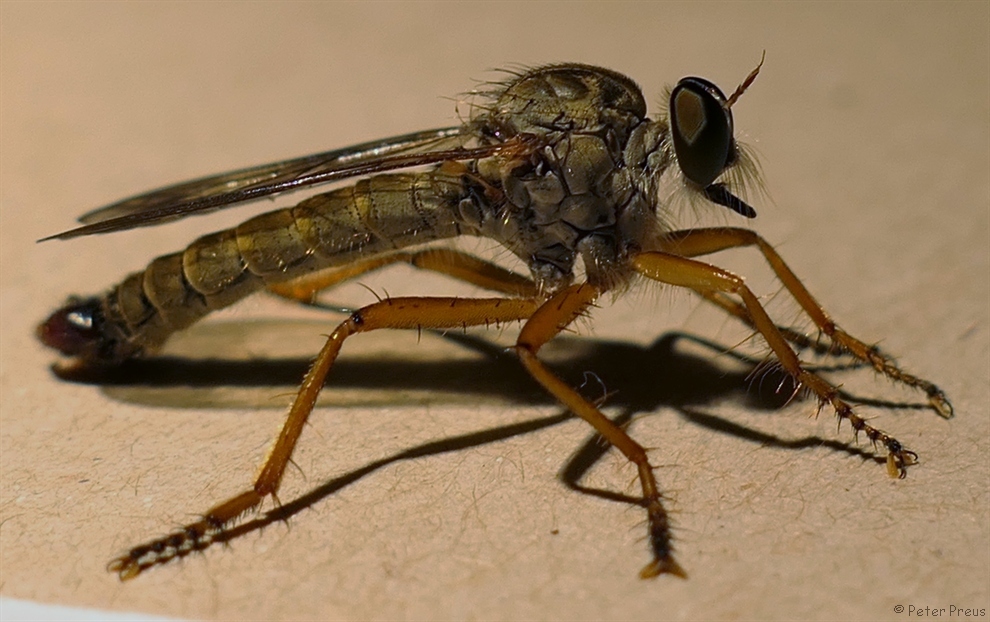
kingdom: Animalia
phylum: Arthropoda
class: Insecta
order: Diptera
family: Asilidae
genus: Aneomochtherus
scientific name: Aneomochtherus flavicornis
